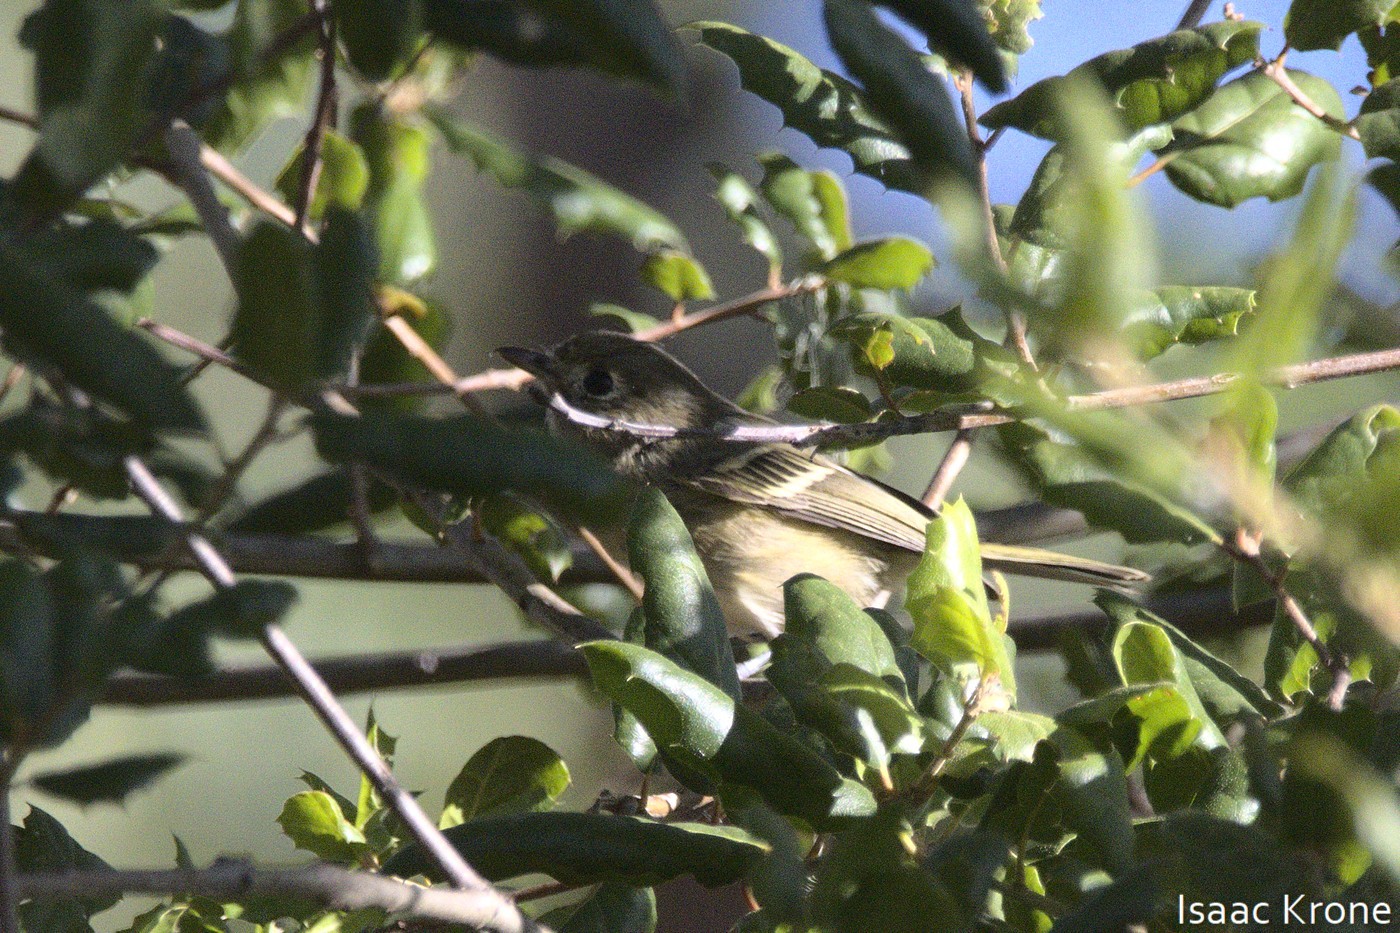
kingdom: Animalia
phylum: Chordata
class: Aves
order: Passeriformes
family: Vireonidae
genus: Vireo
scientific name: Vireo huttoni
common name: Hutton's vireo
